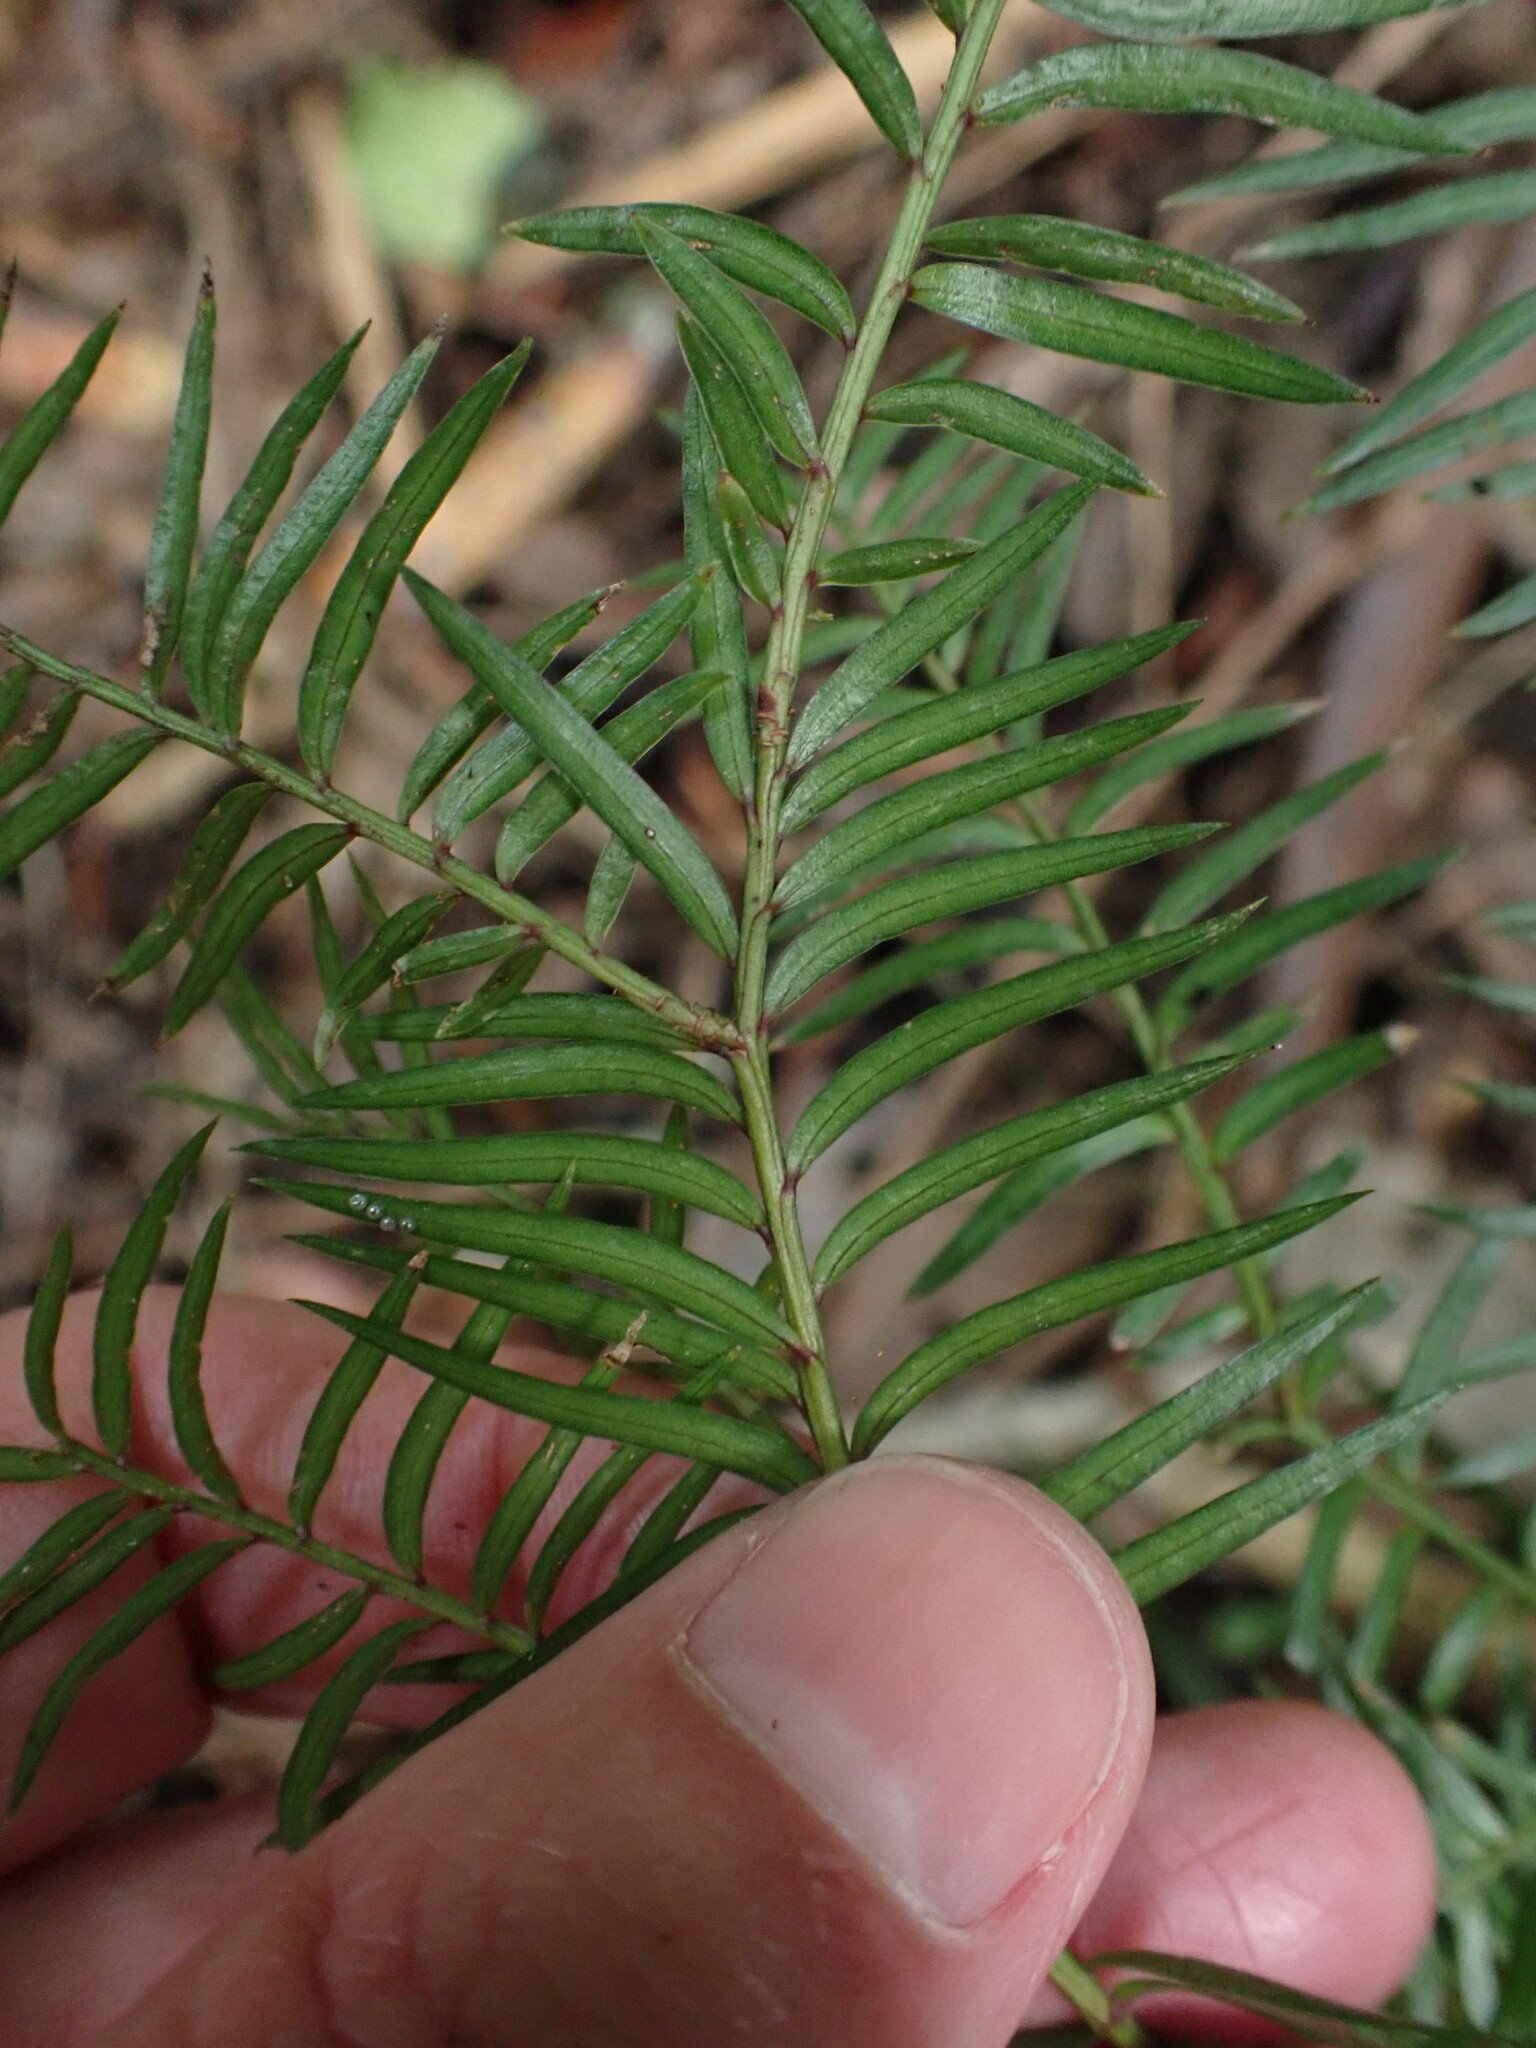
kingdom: Plantae
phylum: Tracheophyta
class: Pinopsida
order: Pinales
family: Podocarpaceae
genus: Prumnopitys
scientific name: Prumnopitys ferruginea
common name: Brown pine
